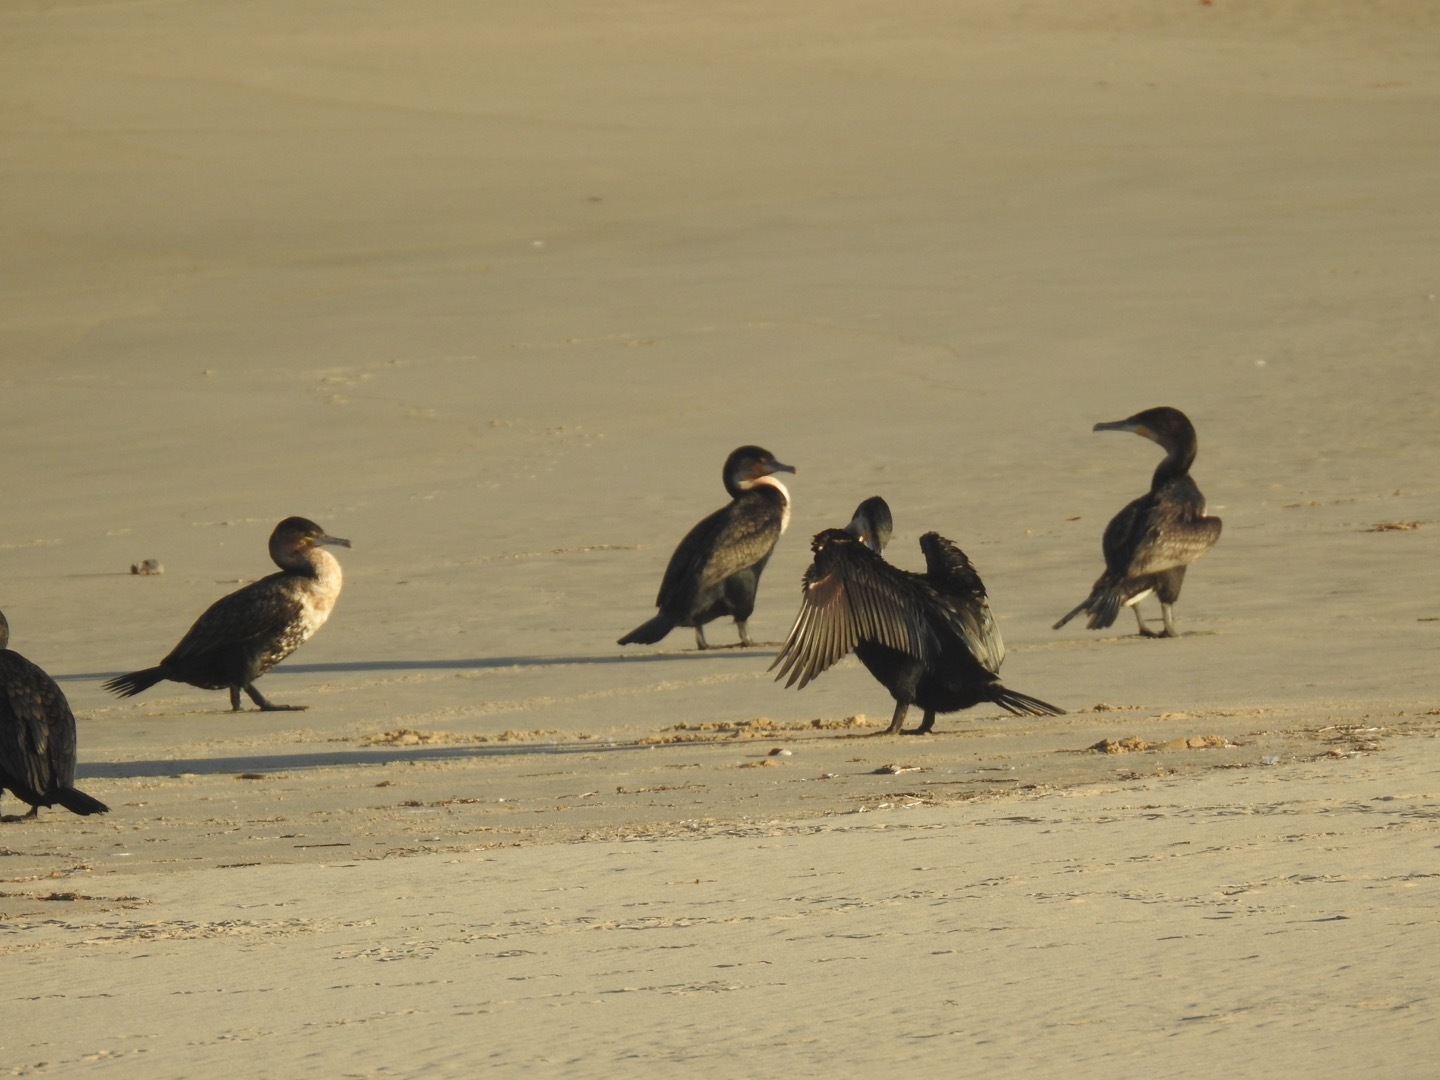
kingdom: Animalia
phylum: Chordata
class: Aves
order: Suliformes
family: Phalacrocoracidae
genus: Phalacrocorax
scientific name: Phalacrocorax carbo
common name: Great cormorant
